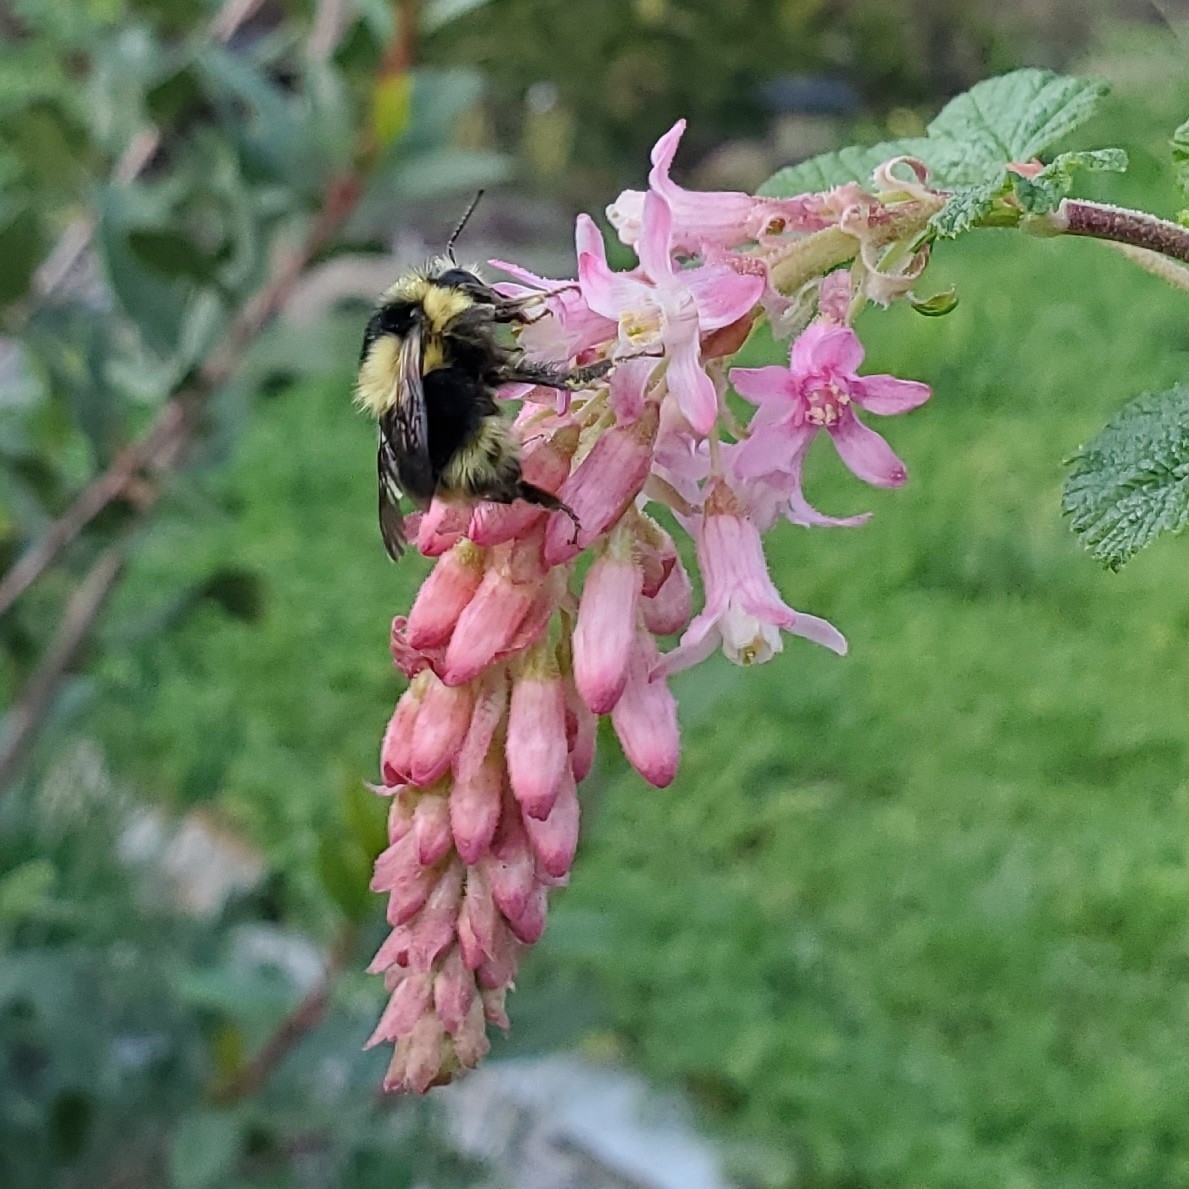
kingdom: Animalia
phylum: Arthropoda
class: Insecta
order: Hymenoptera
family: Apidae
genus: Bombus
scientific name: Bombus melanopygus
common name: Black tail bumble bee
